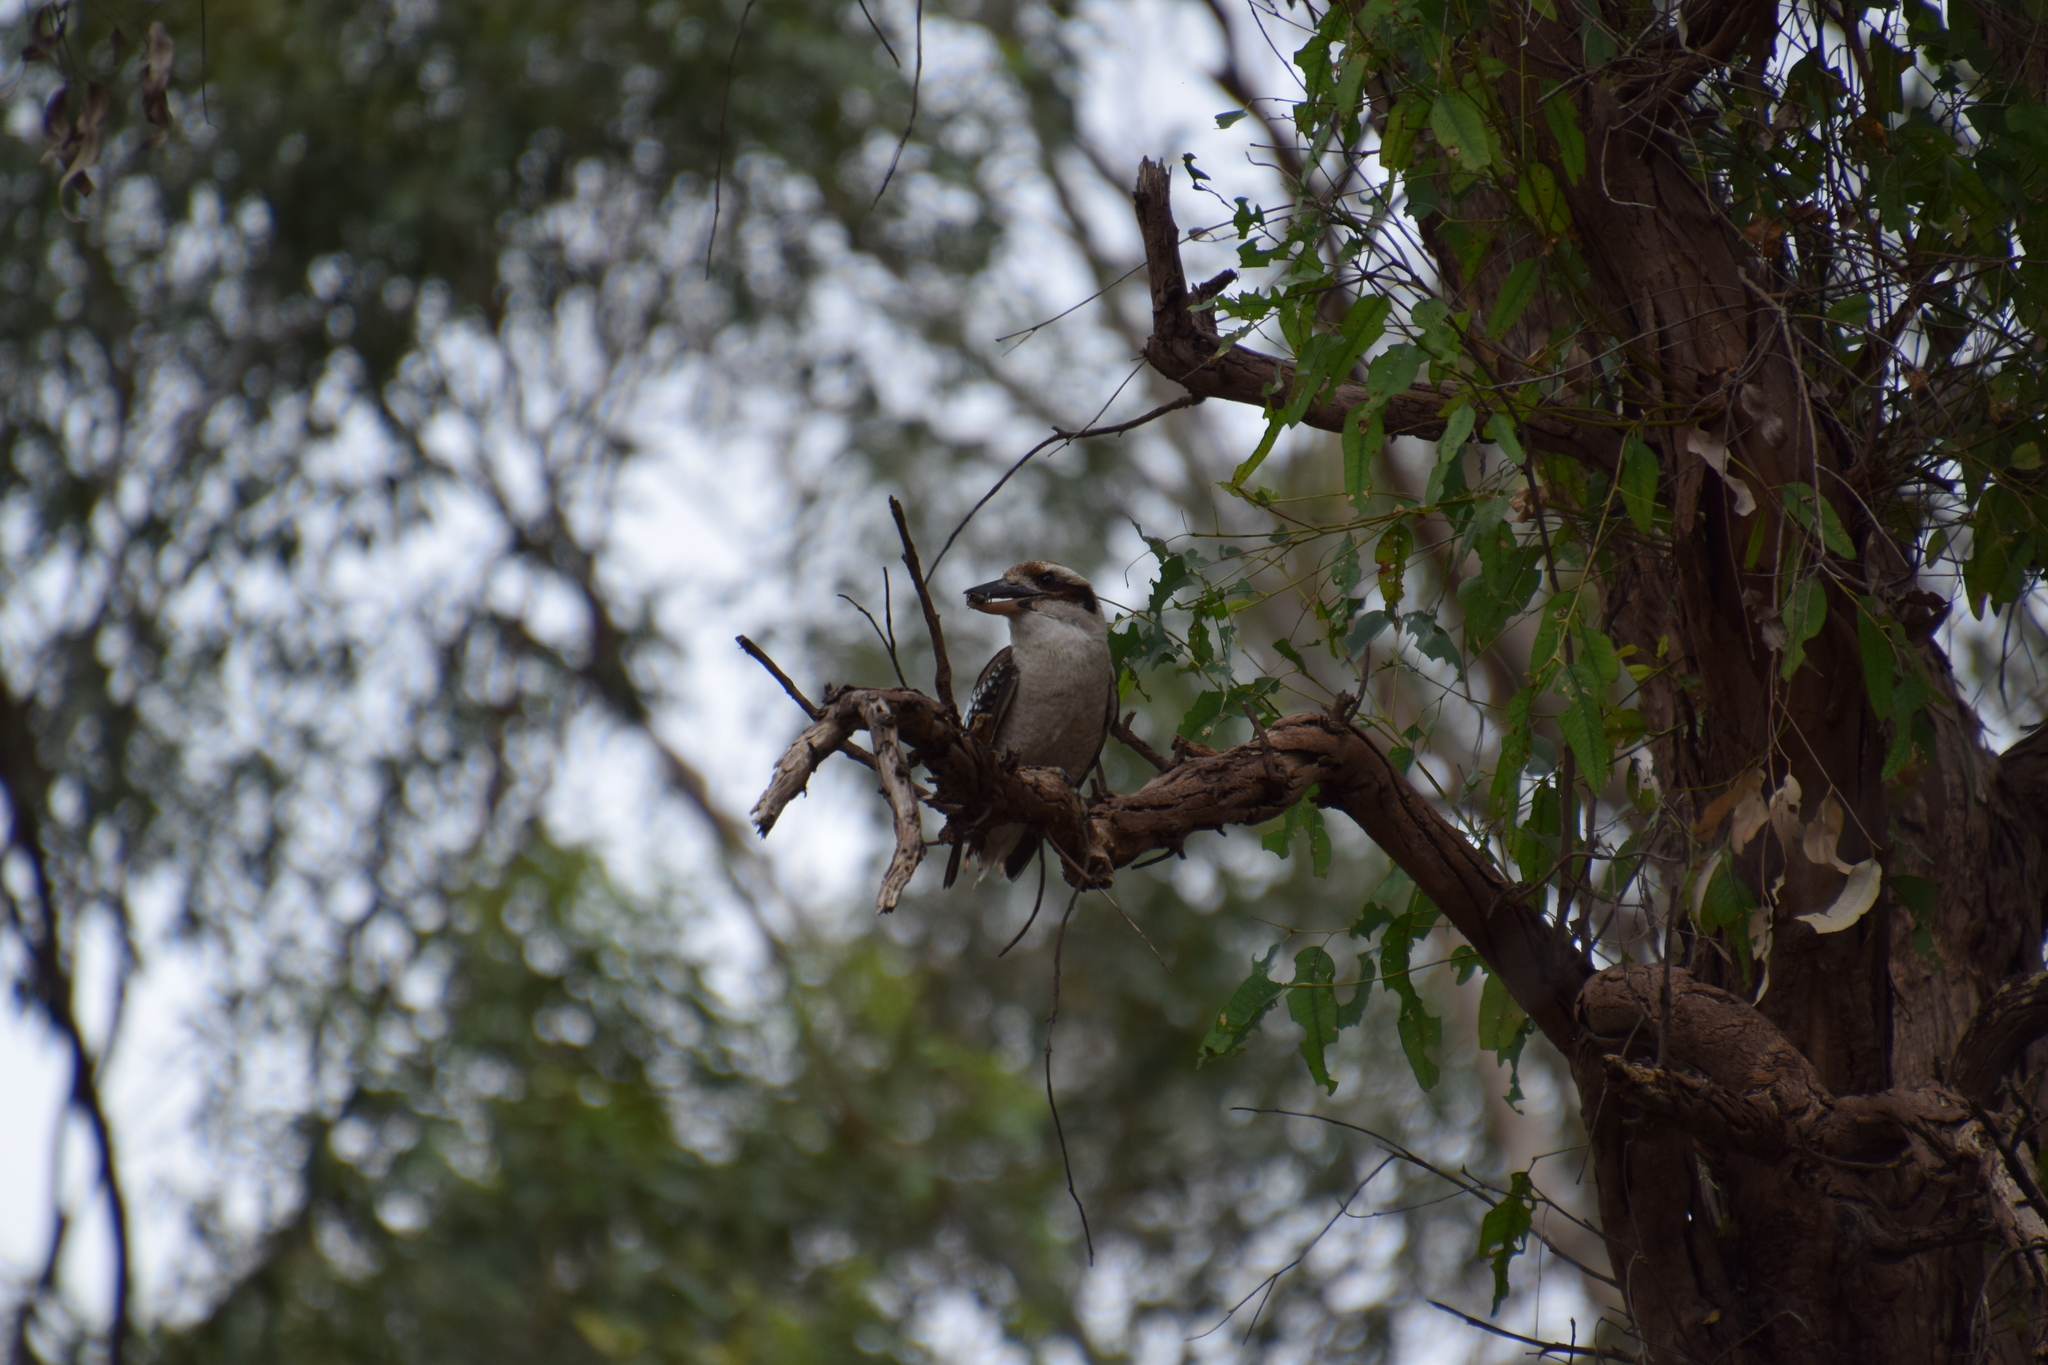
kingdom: Animalia
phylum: Chordata
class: Aves
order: Coraciiformes
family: Alcedinidae
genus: Dacelo
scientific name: Dacelo novaeguineae
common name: Laughing kookaburra
